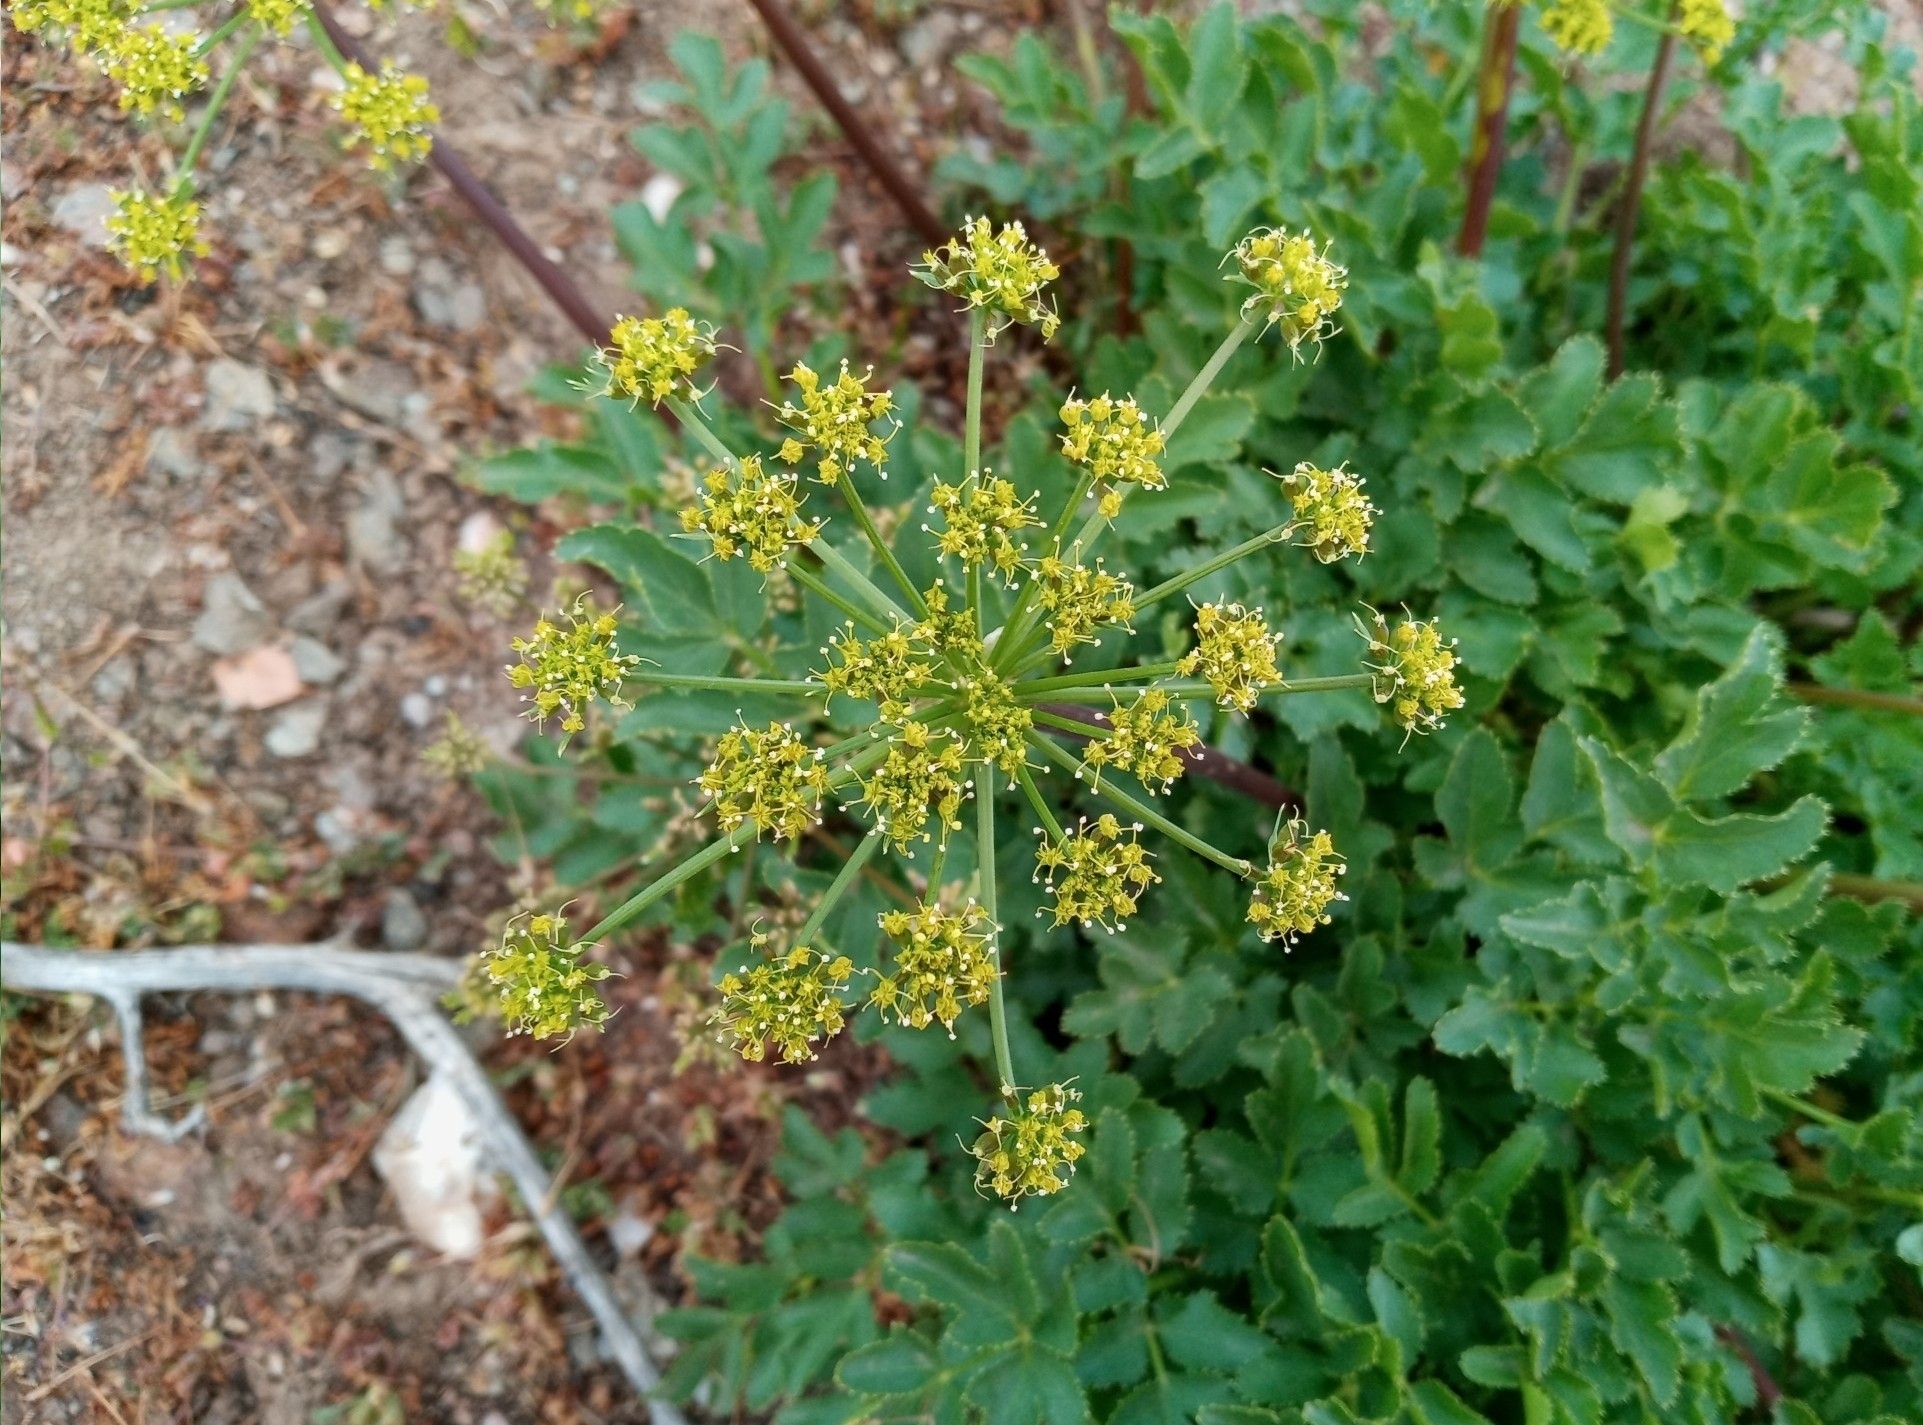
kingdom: Plantae
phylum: Tracheophyta
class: Magnoliopsida
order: Apiales
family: Apiaceae
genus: Tauschia
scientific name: Tauschia hartwegii
